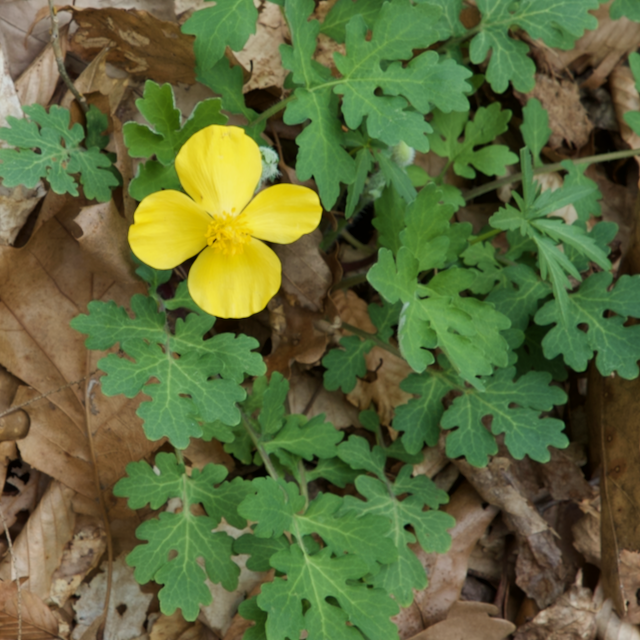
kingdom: Plantae
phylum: Tracheophyta
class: Magnoliopsida
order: Ranunculales
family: Papaveraceae
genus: Stylophorum
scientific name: Stylophorum diphyllum
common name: Celandine poppy
